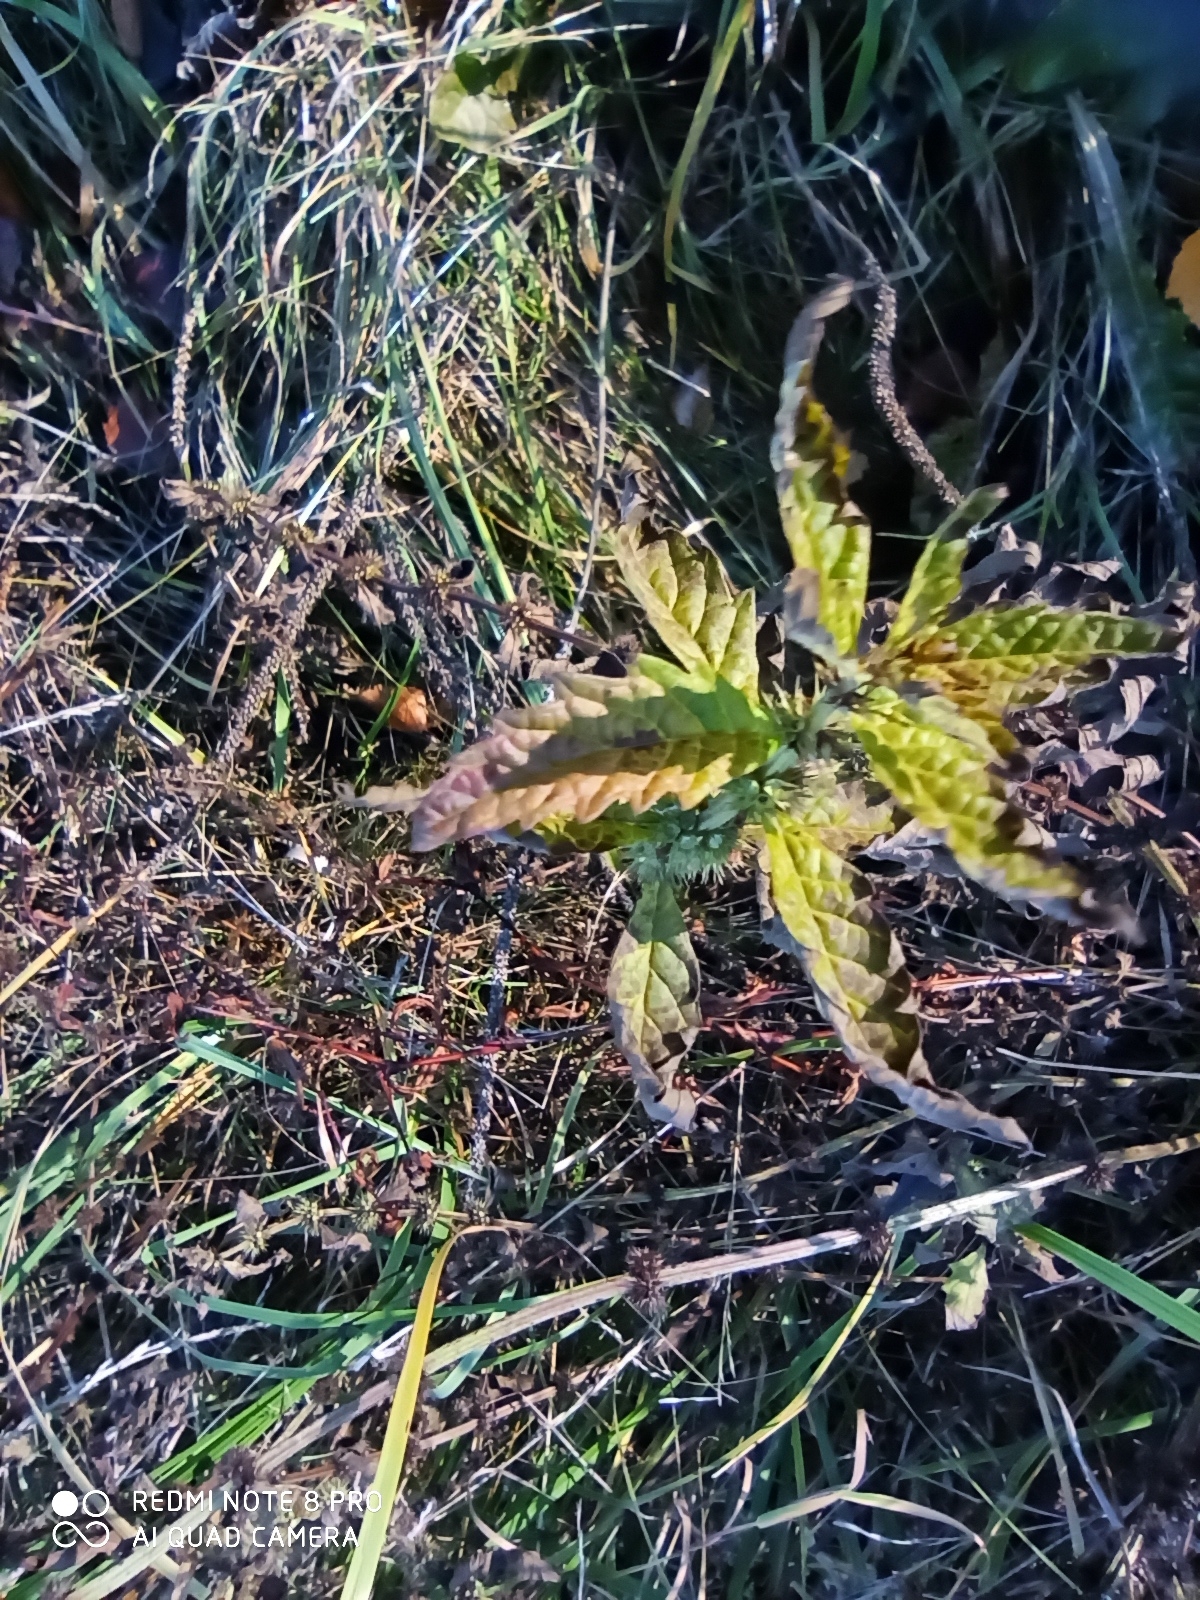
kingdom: Plantae
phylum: Tracheophyta
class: Magnoliopsida
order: Lamiales
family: Lamiaceae
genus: Lycopus
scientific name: Lycopus europaeus
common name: European bugleweed
